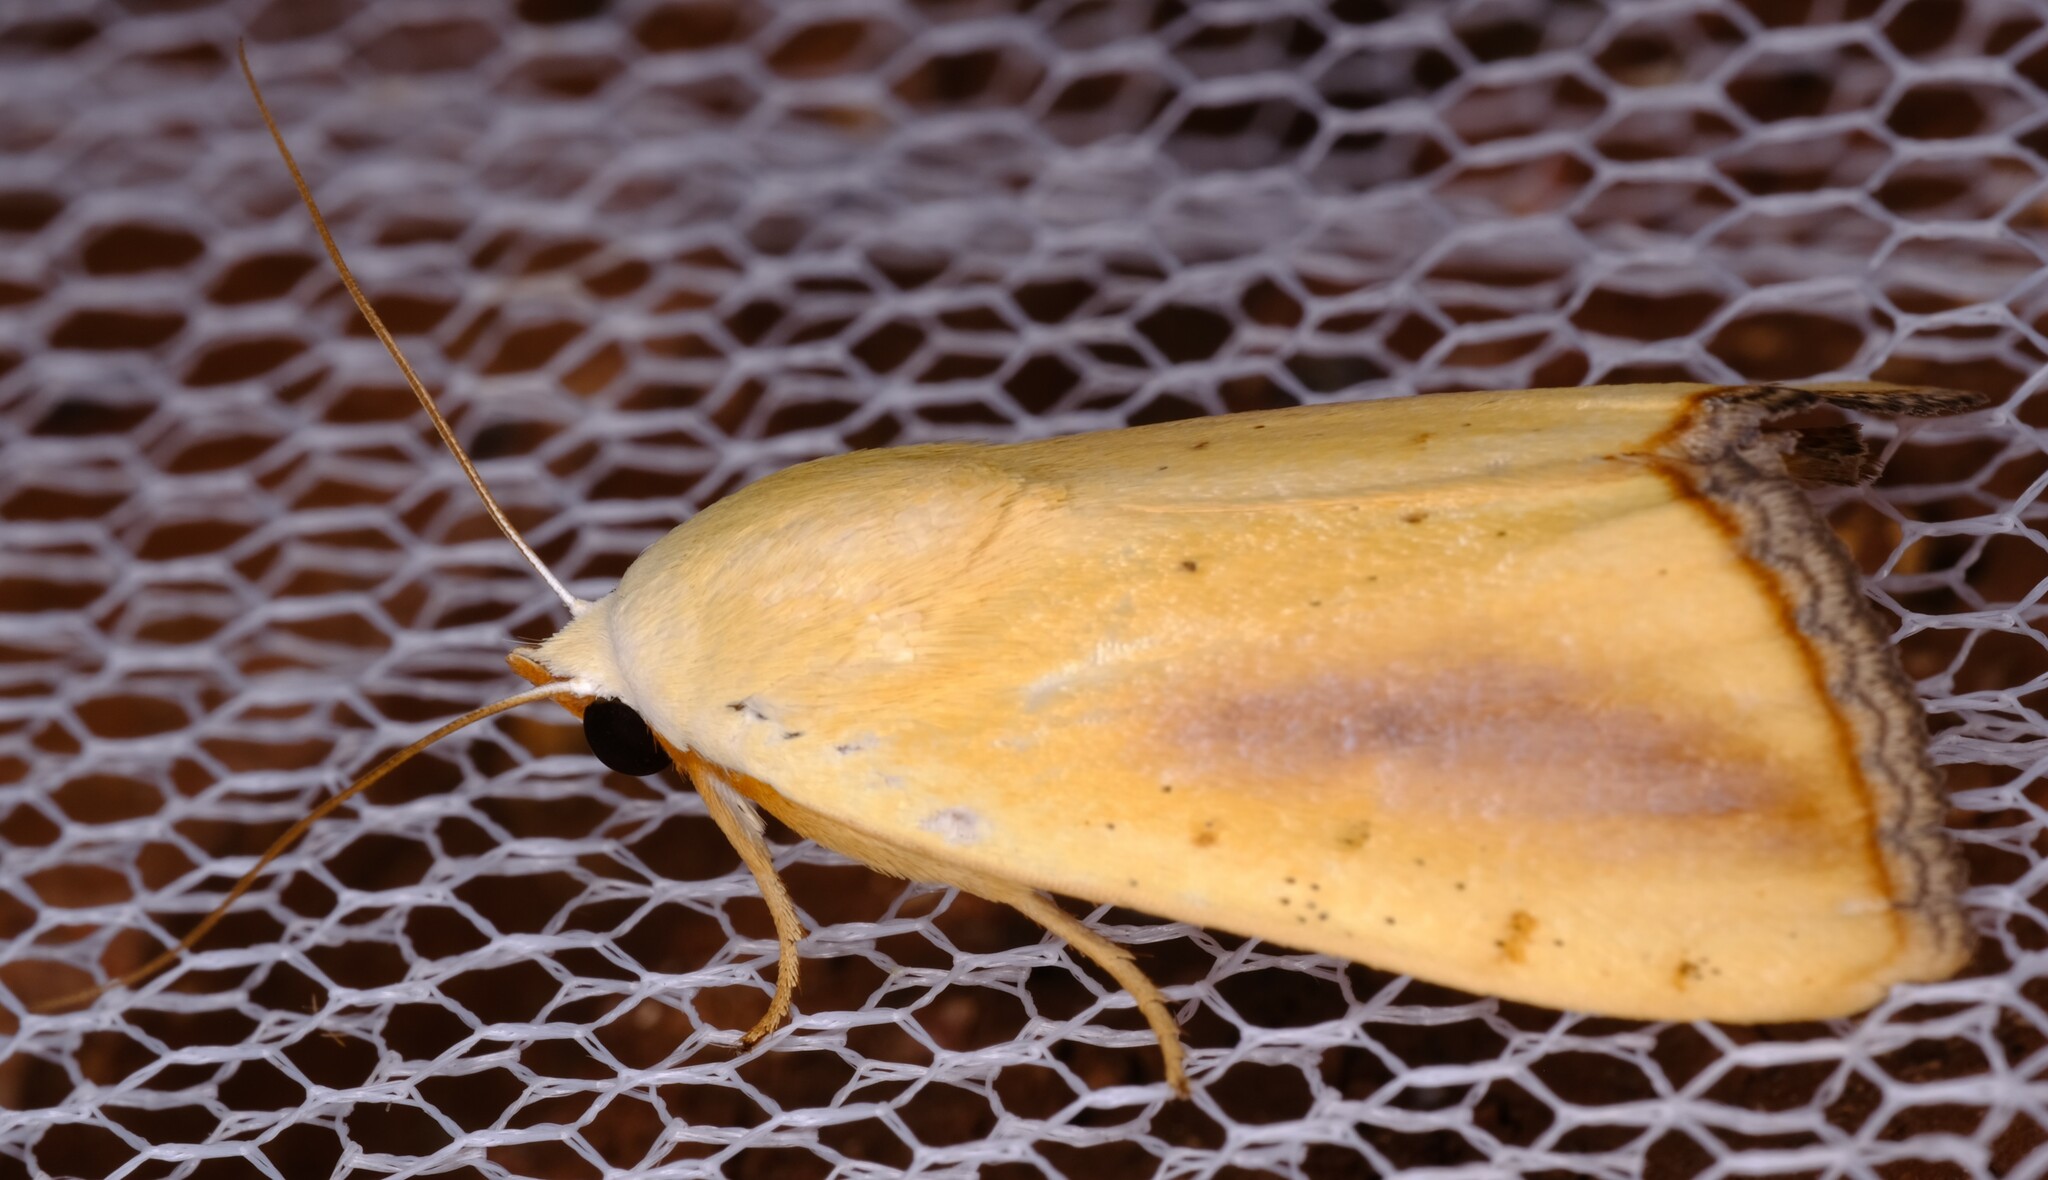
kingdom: Animalia
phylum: Arthropoda
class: Insecta
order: Lepidoptera
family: Nolidae
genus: Xanthodes
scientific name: Xanthodes congenita
